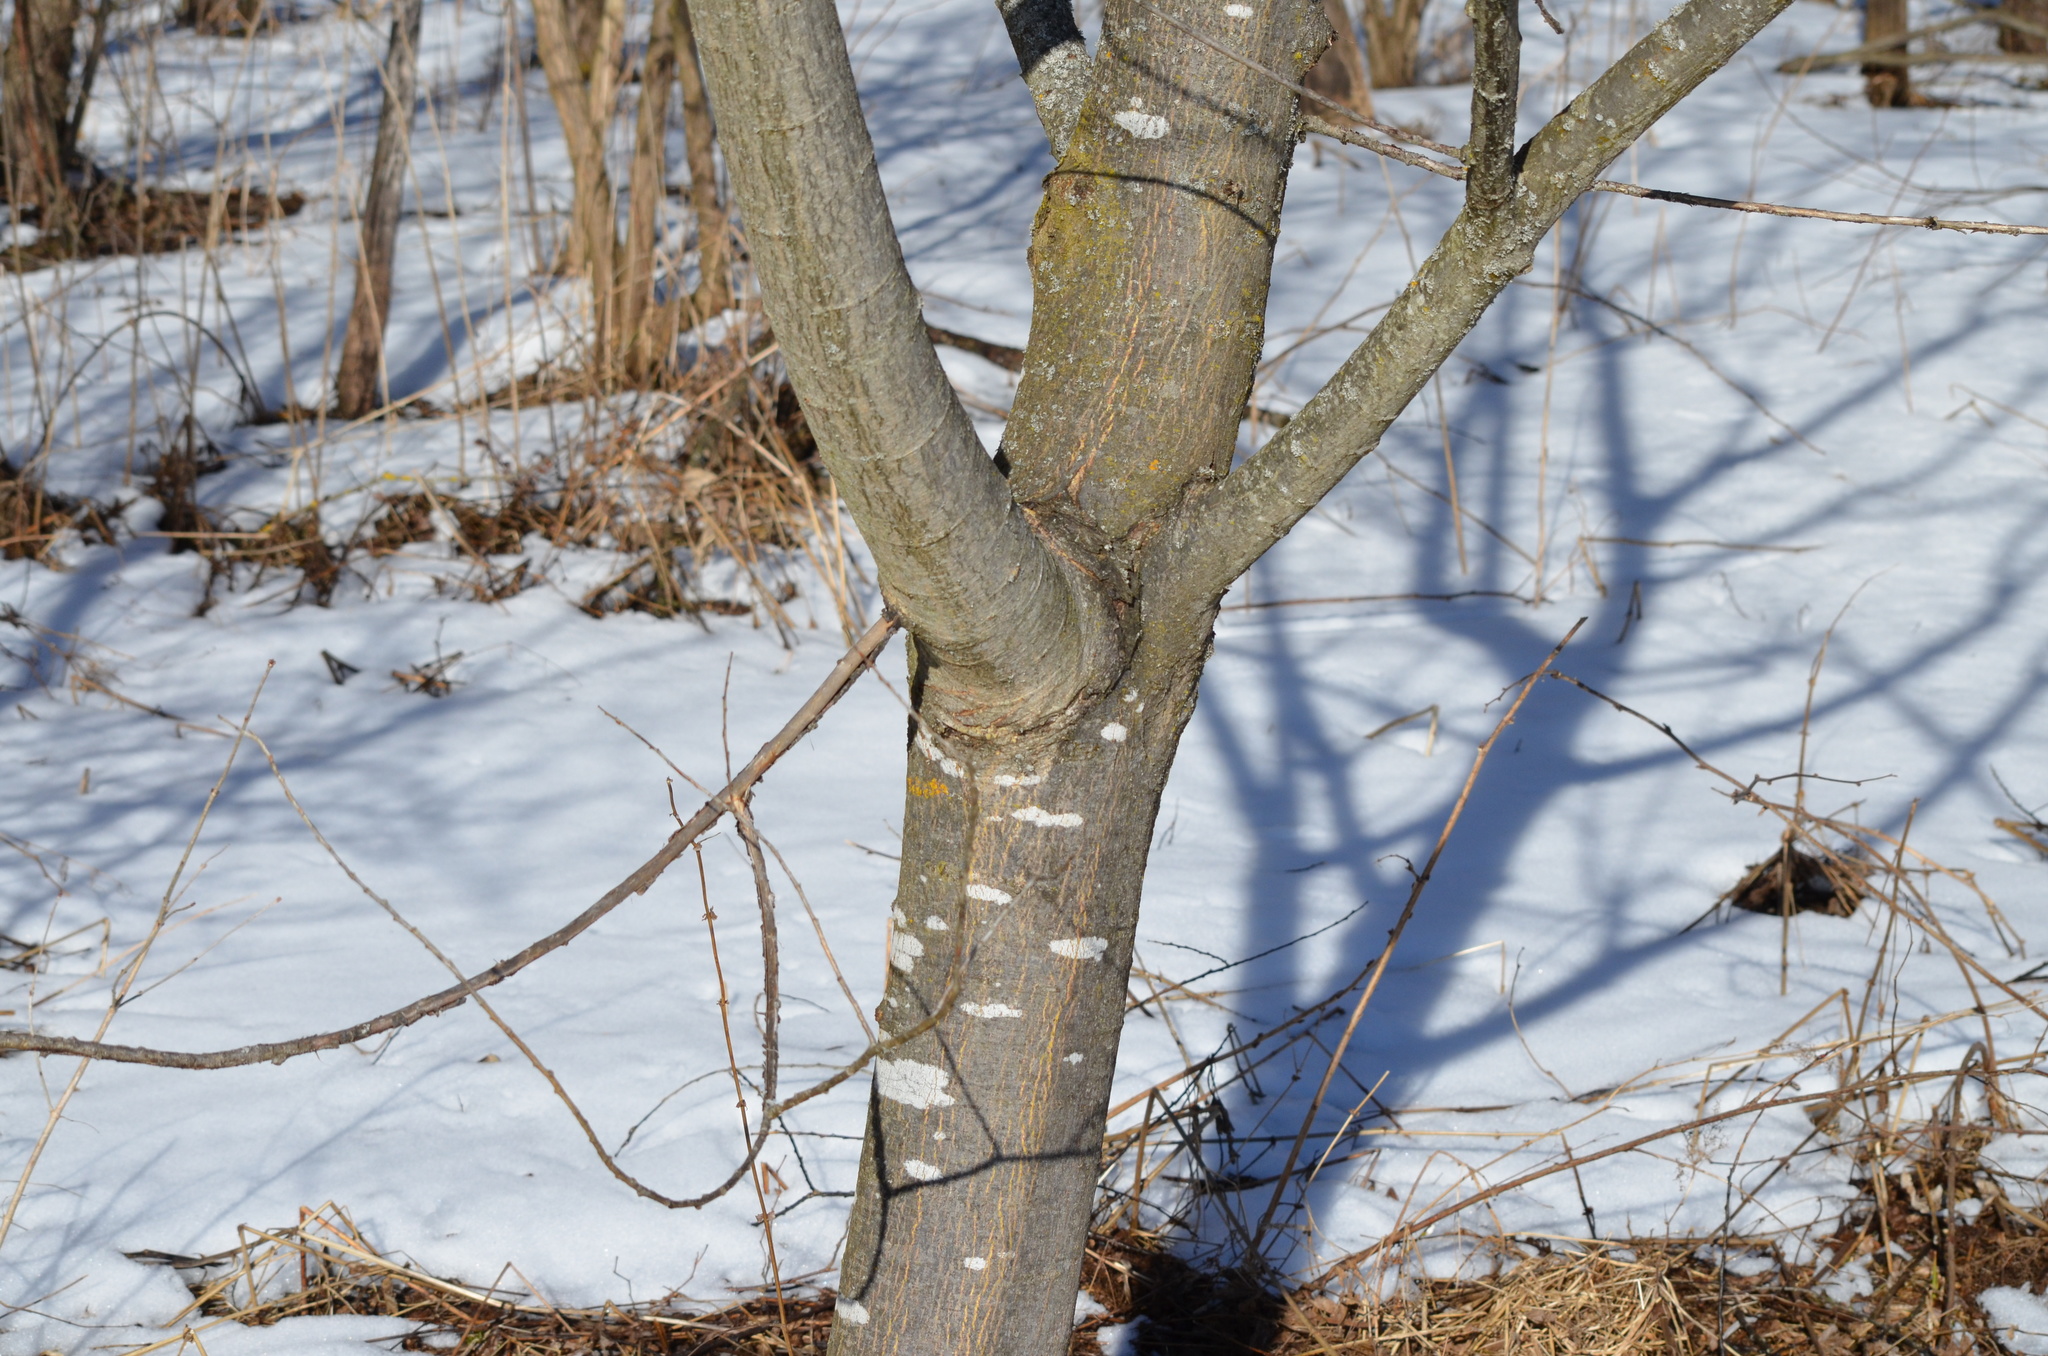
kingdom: Plantae
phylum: Tracheophyta
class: Magnoliopsida
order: Malpighiales
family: Salicaceae
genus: Salix
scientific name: Salix daphnoides
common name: European violet-willow
